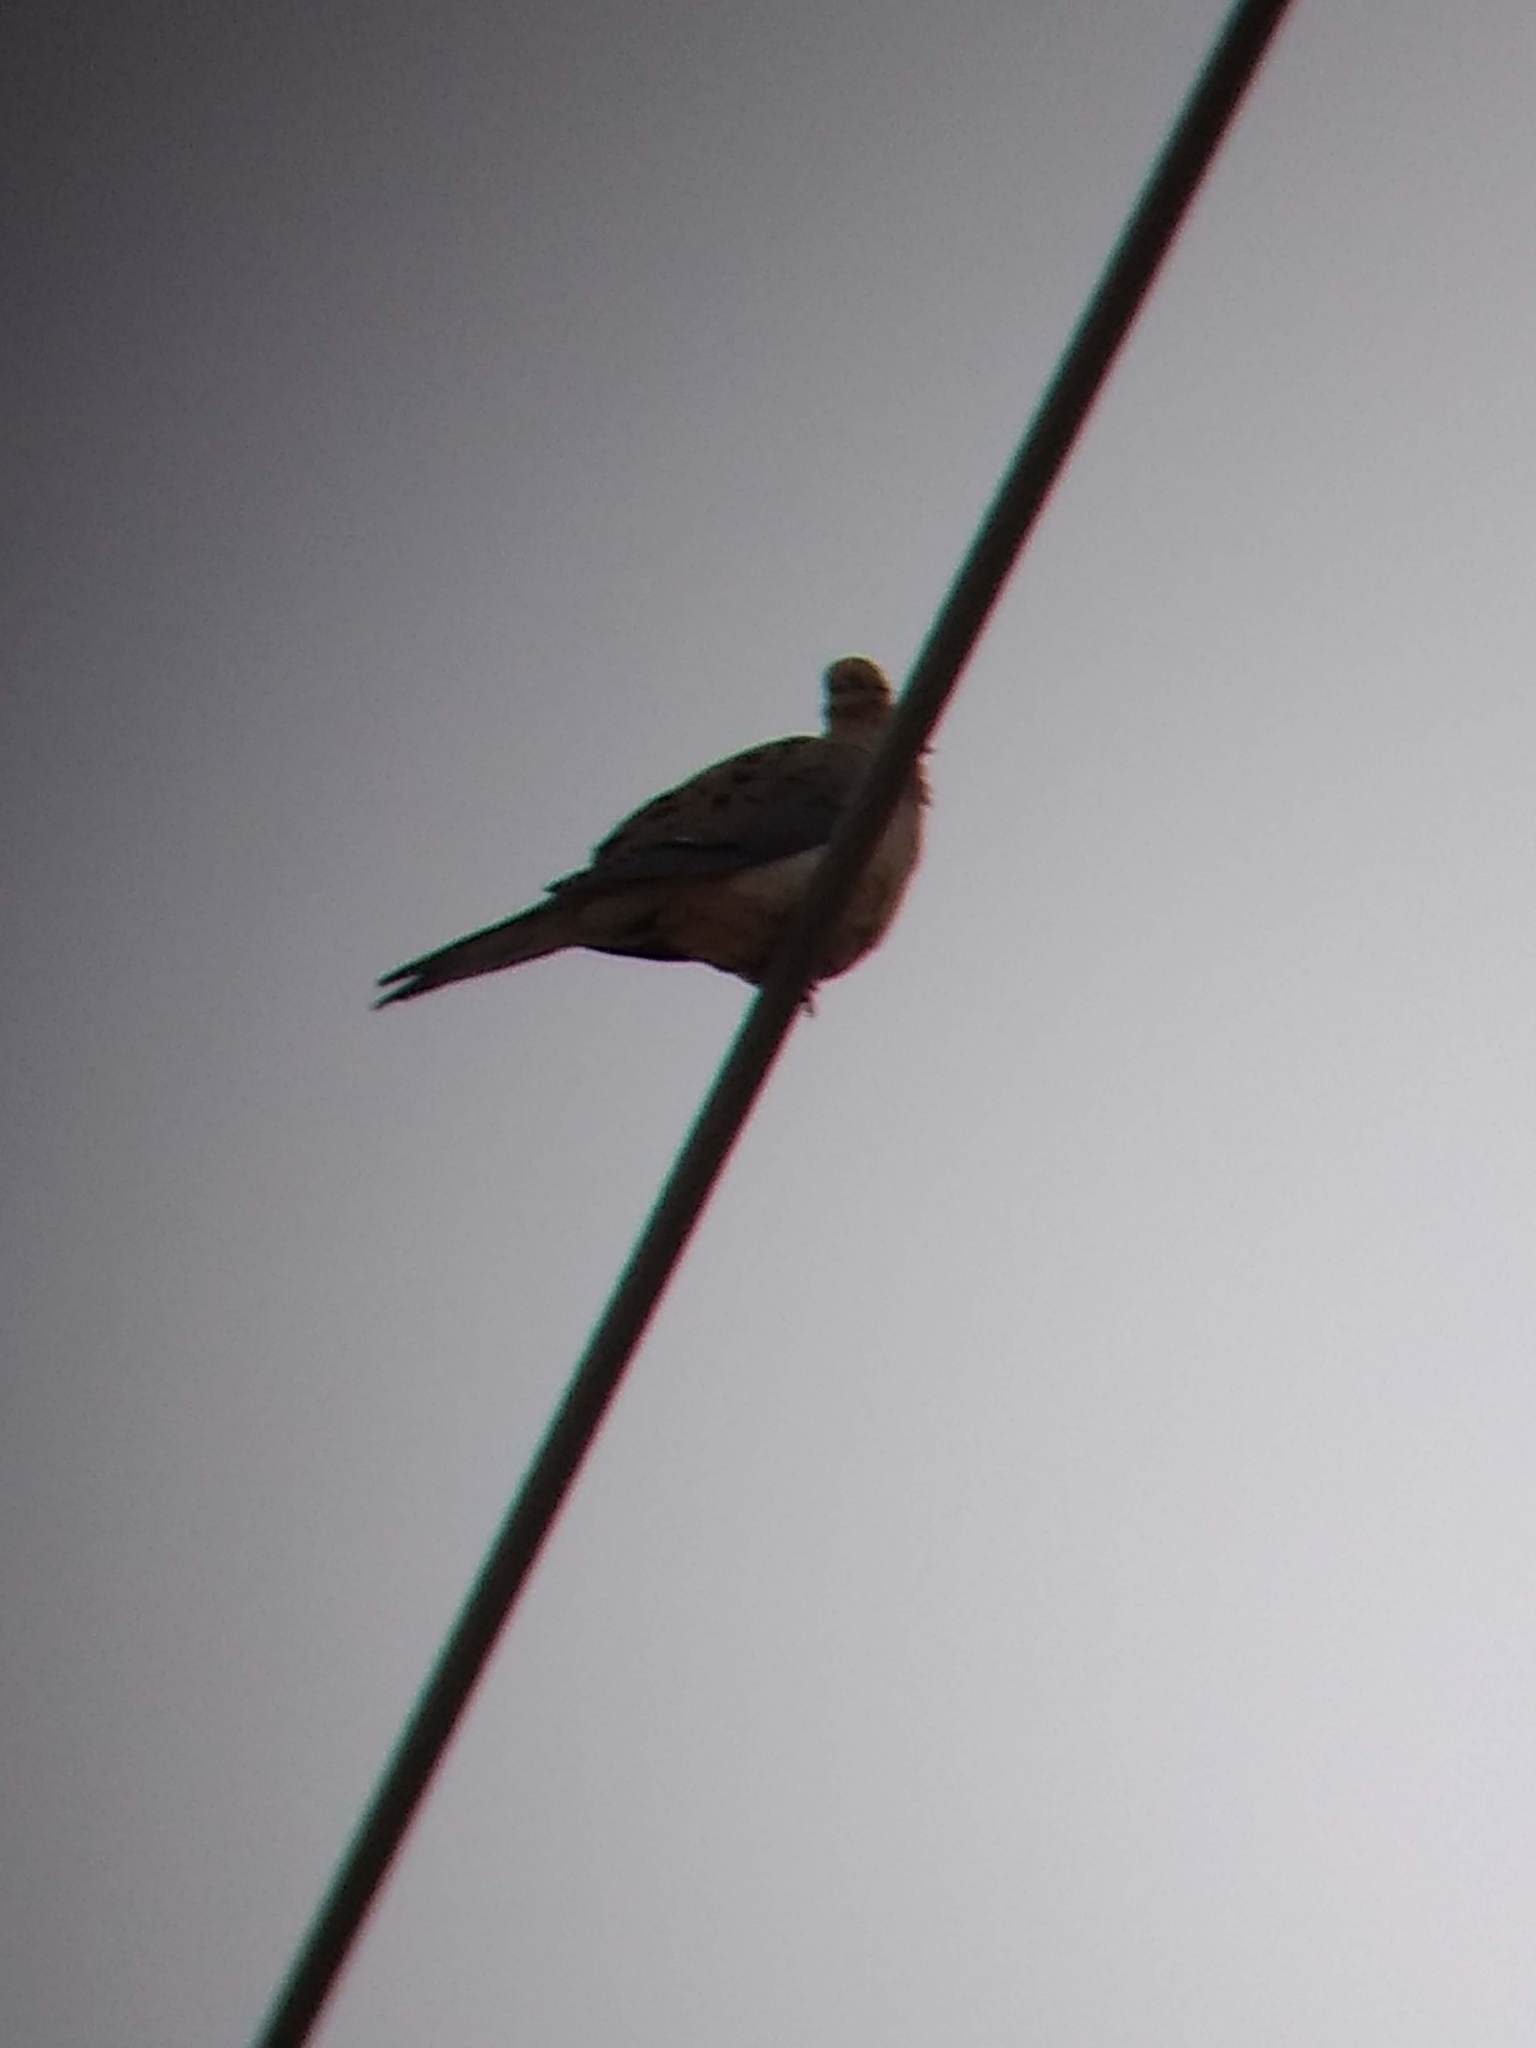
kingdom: Animalia
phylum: Chordata
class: Aves
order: Columbiformes
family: Columbidae
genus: Zenaida
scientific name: Zenaida macroura
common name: Mourning dove
